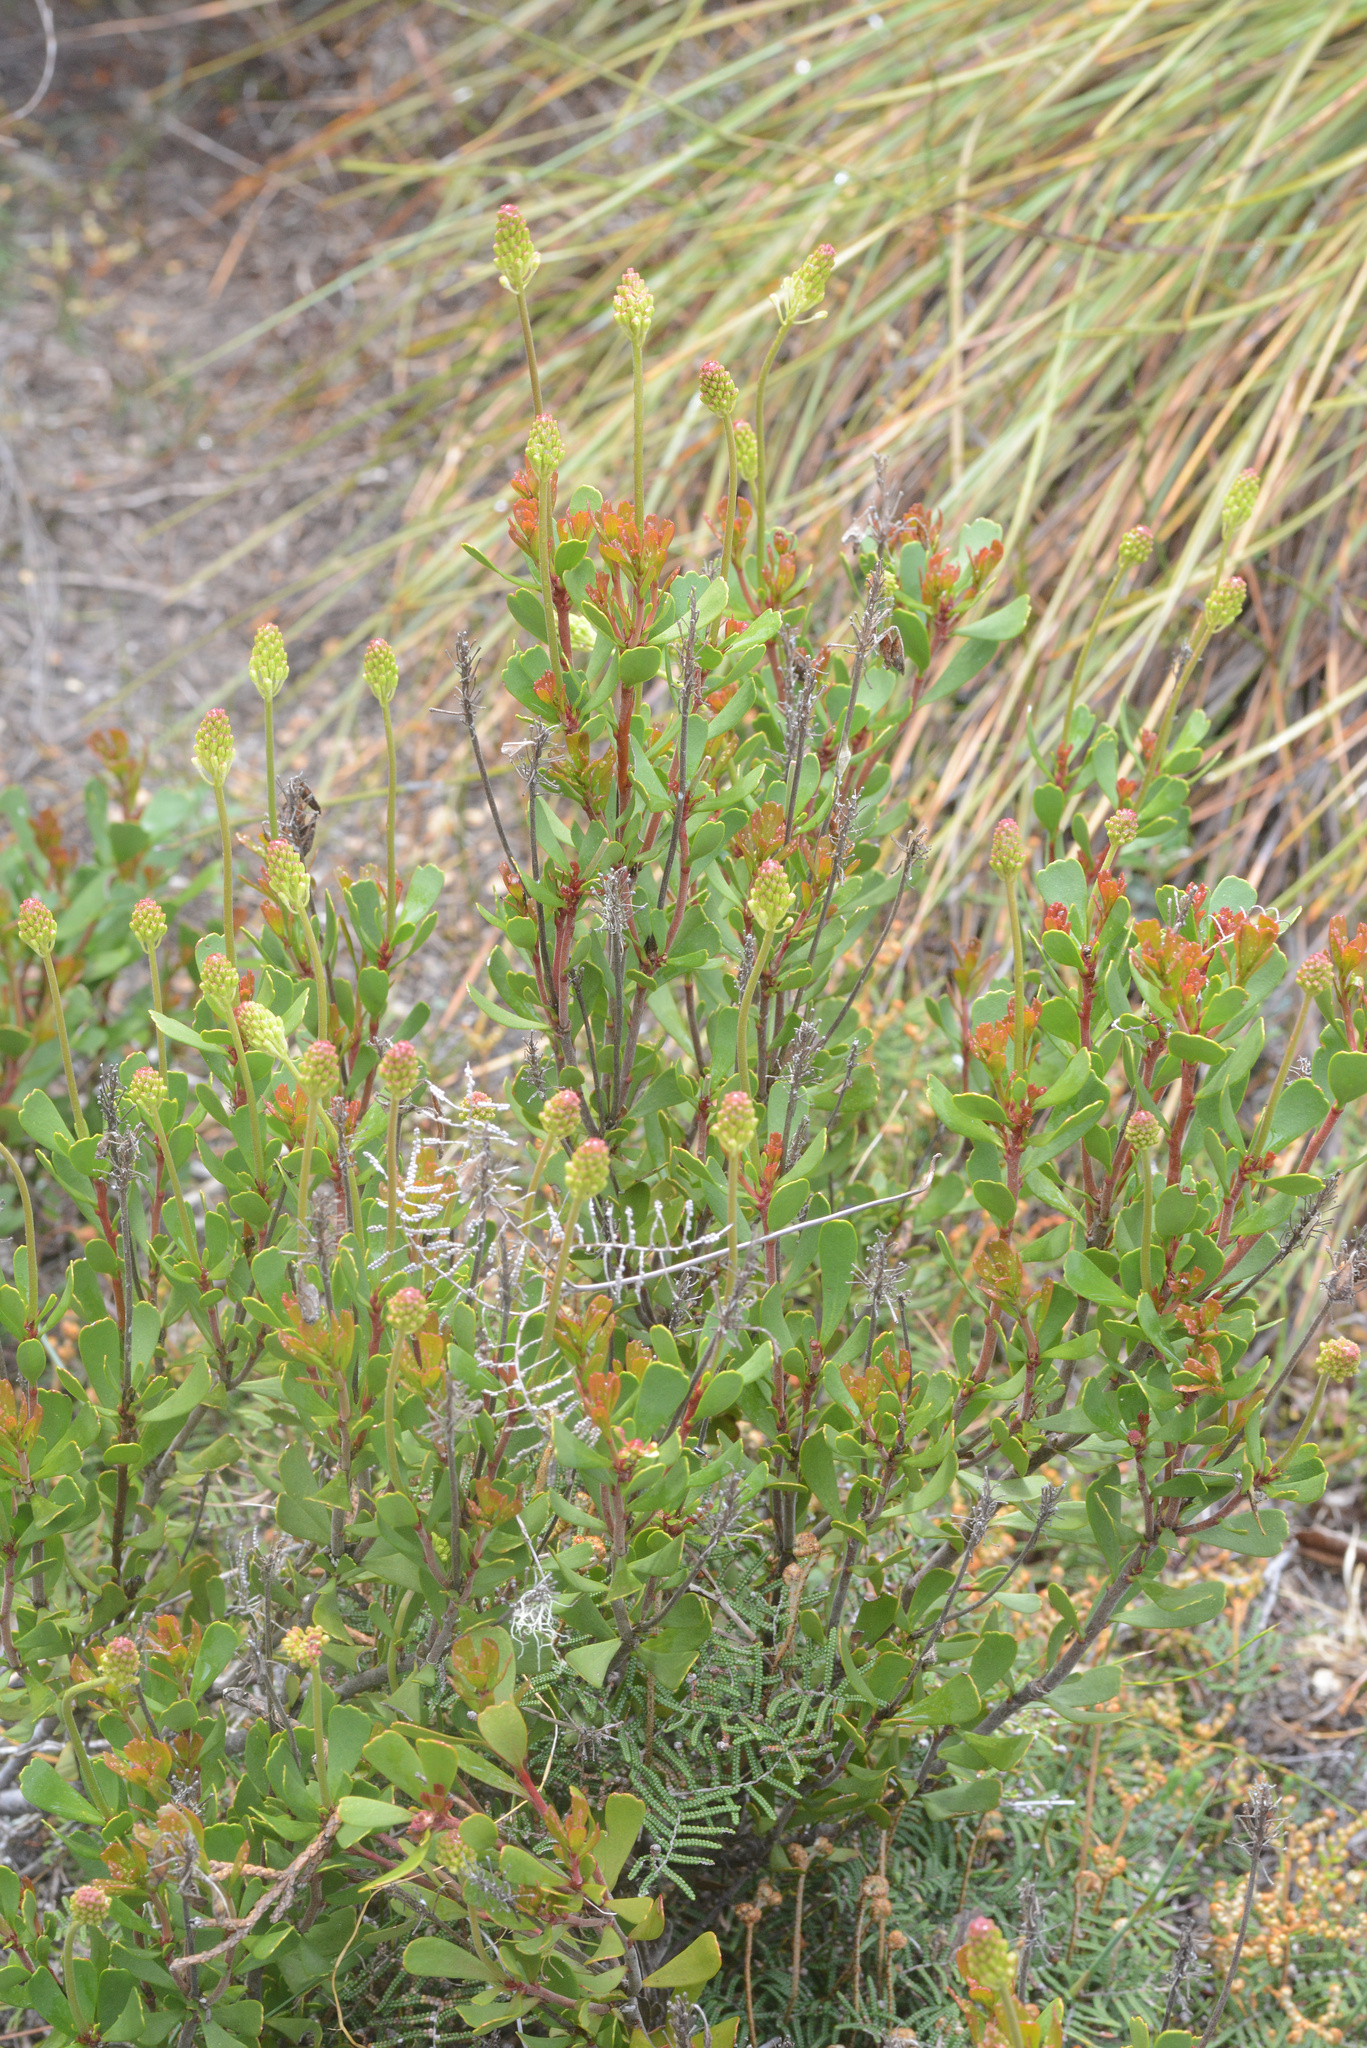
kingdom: Plantae
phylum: Tracheophyta
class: Magnoliopsida
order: Proteales
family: Proteaceae
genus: Bellendena
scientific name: Bellendena montana
